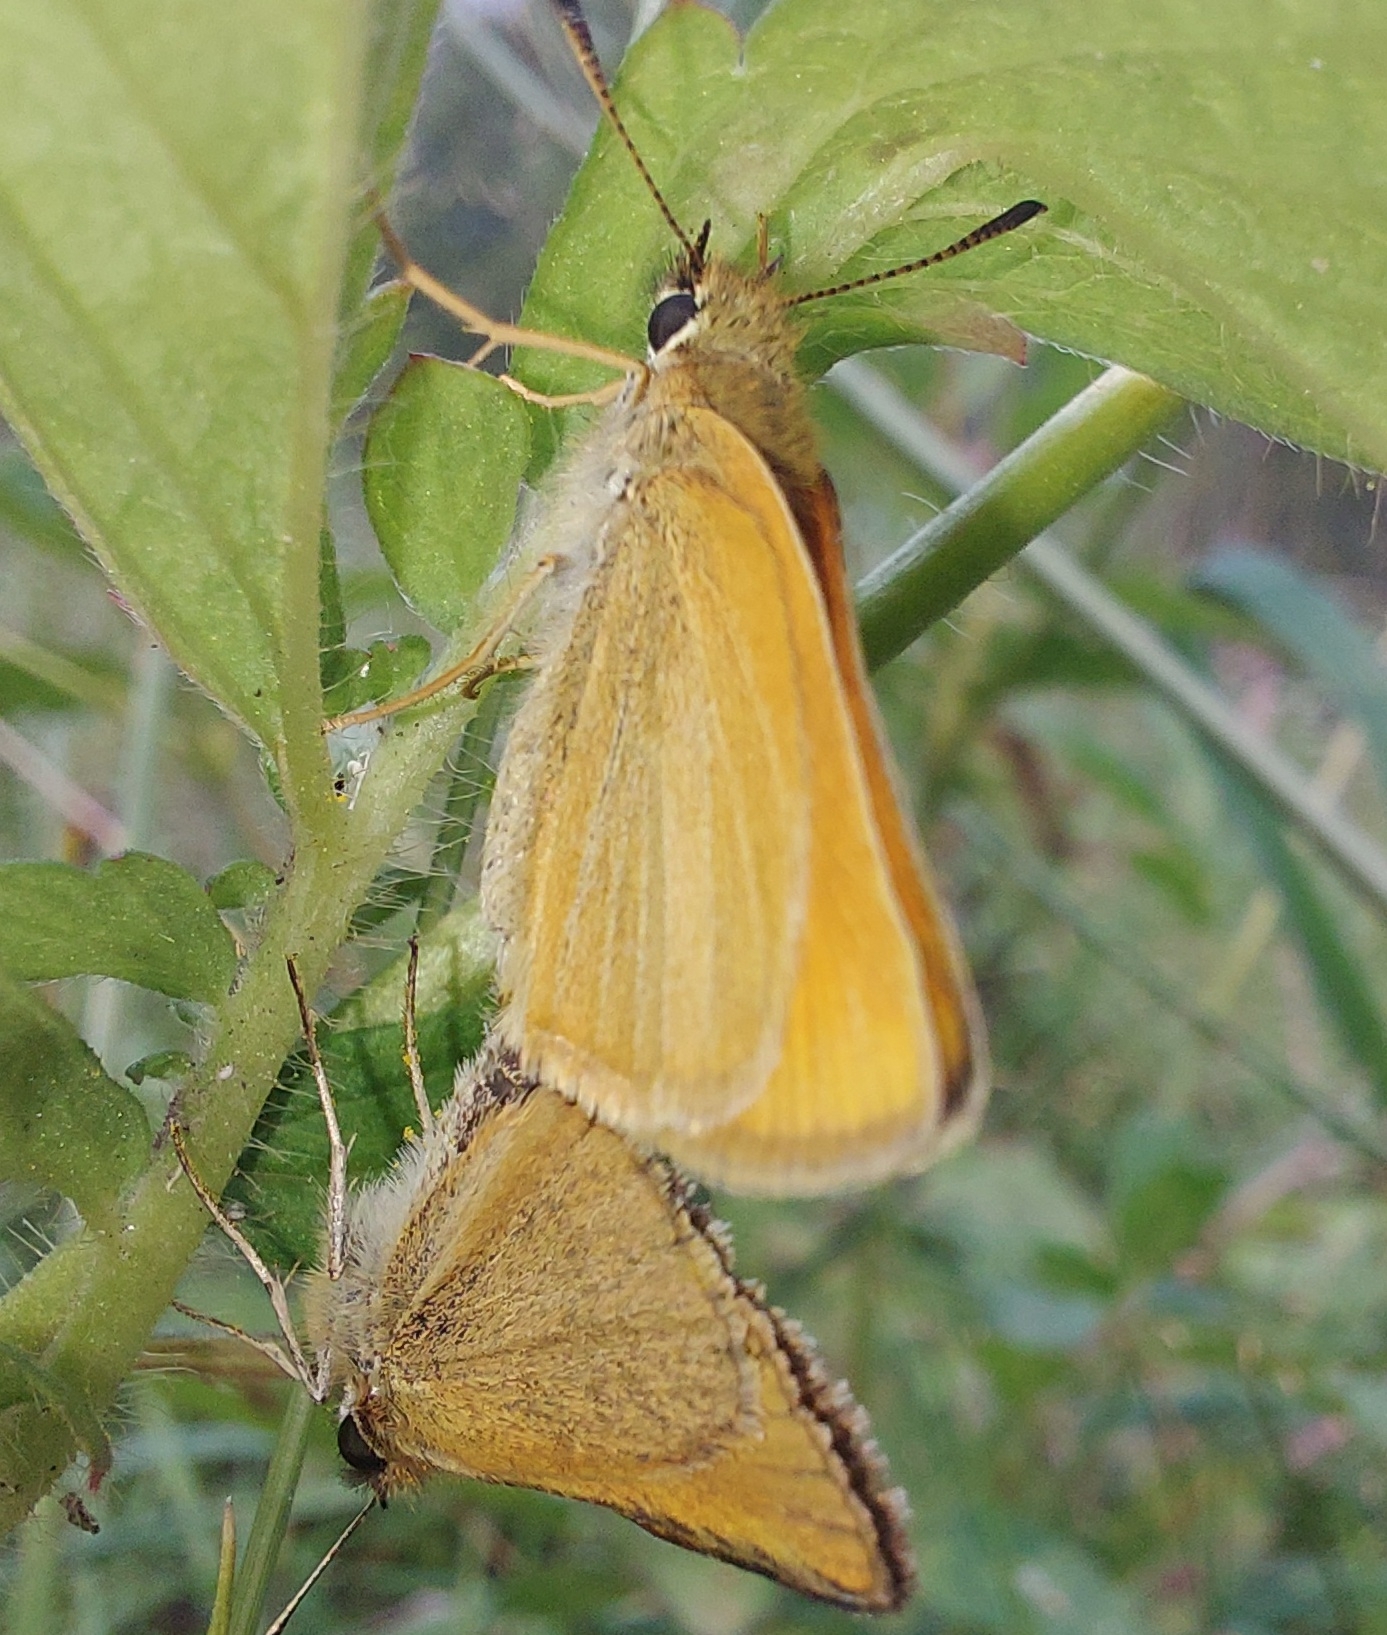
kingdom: Animalia
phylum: Arthropoda
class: Insecta
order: Lepidoptera
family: Hesperiidae
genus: Thymelicus
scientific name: Thymelicus lineola
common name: Essex skipper
